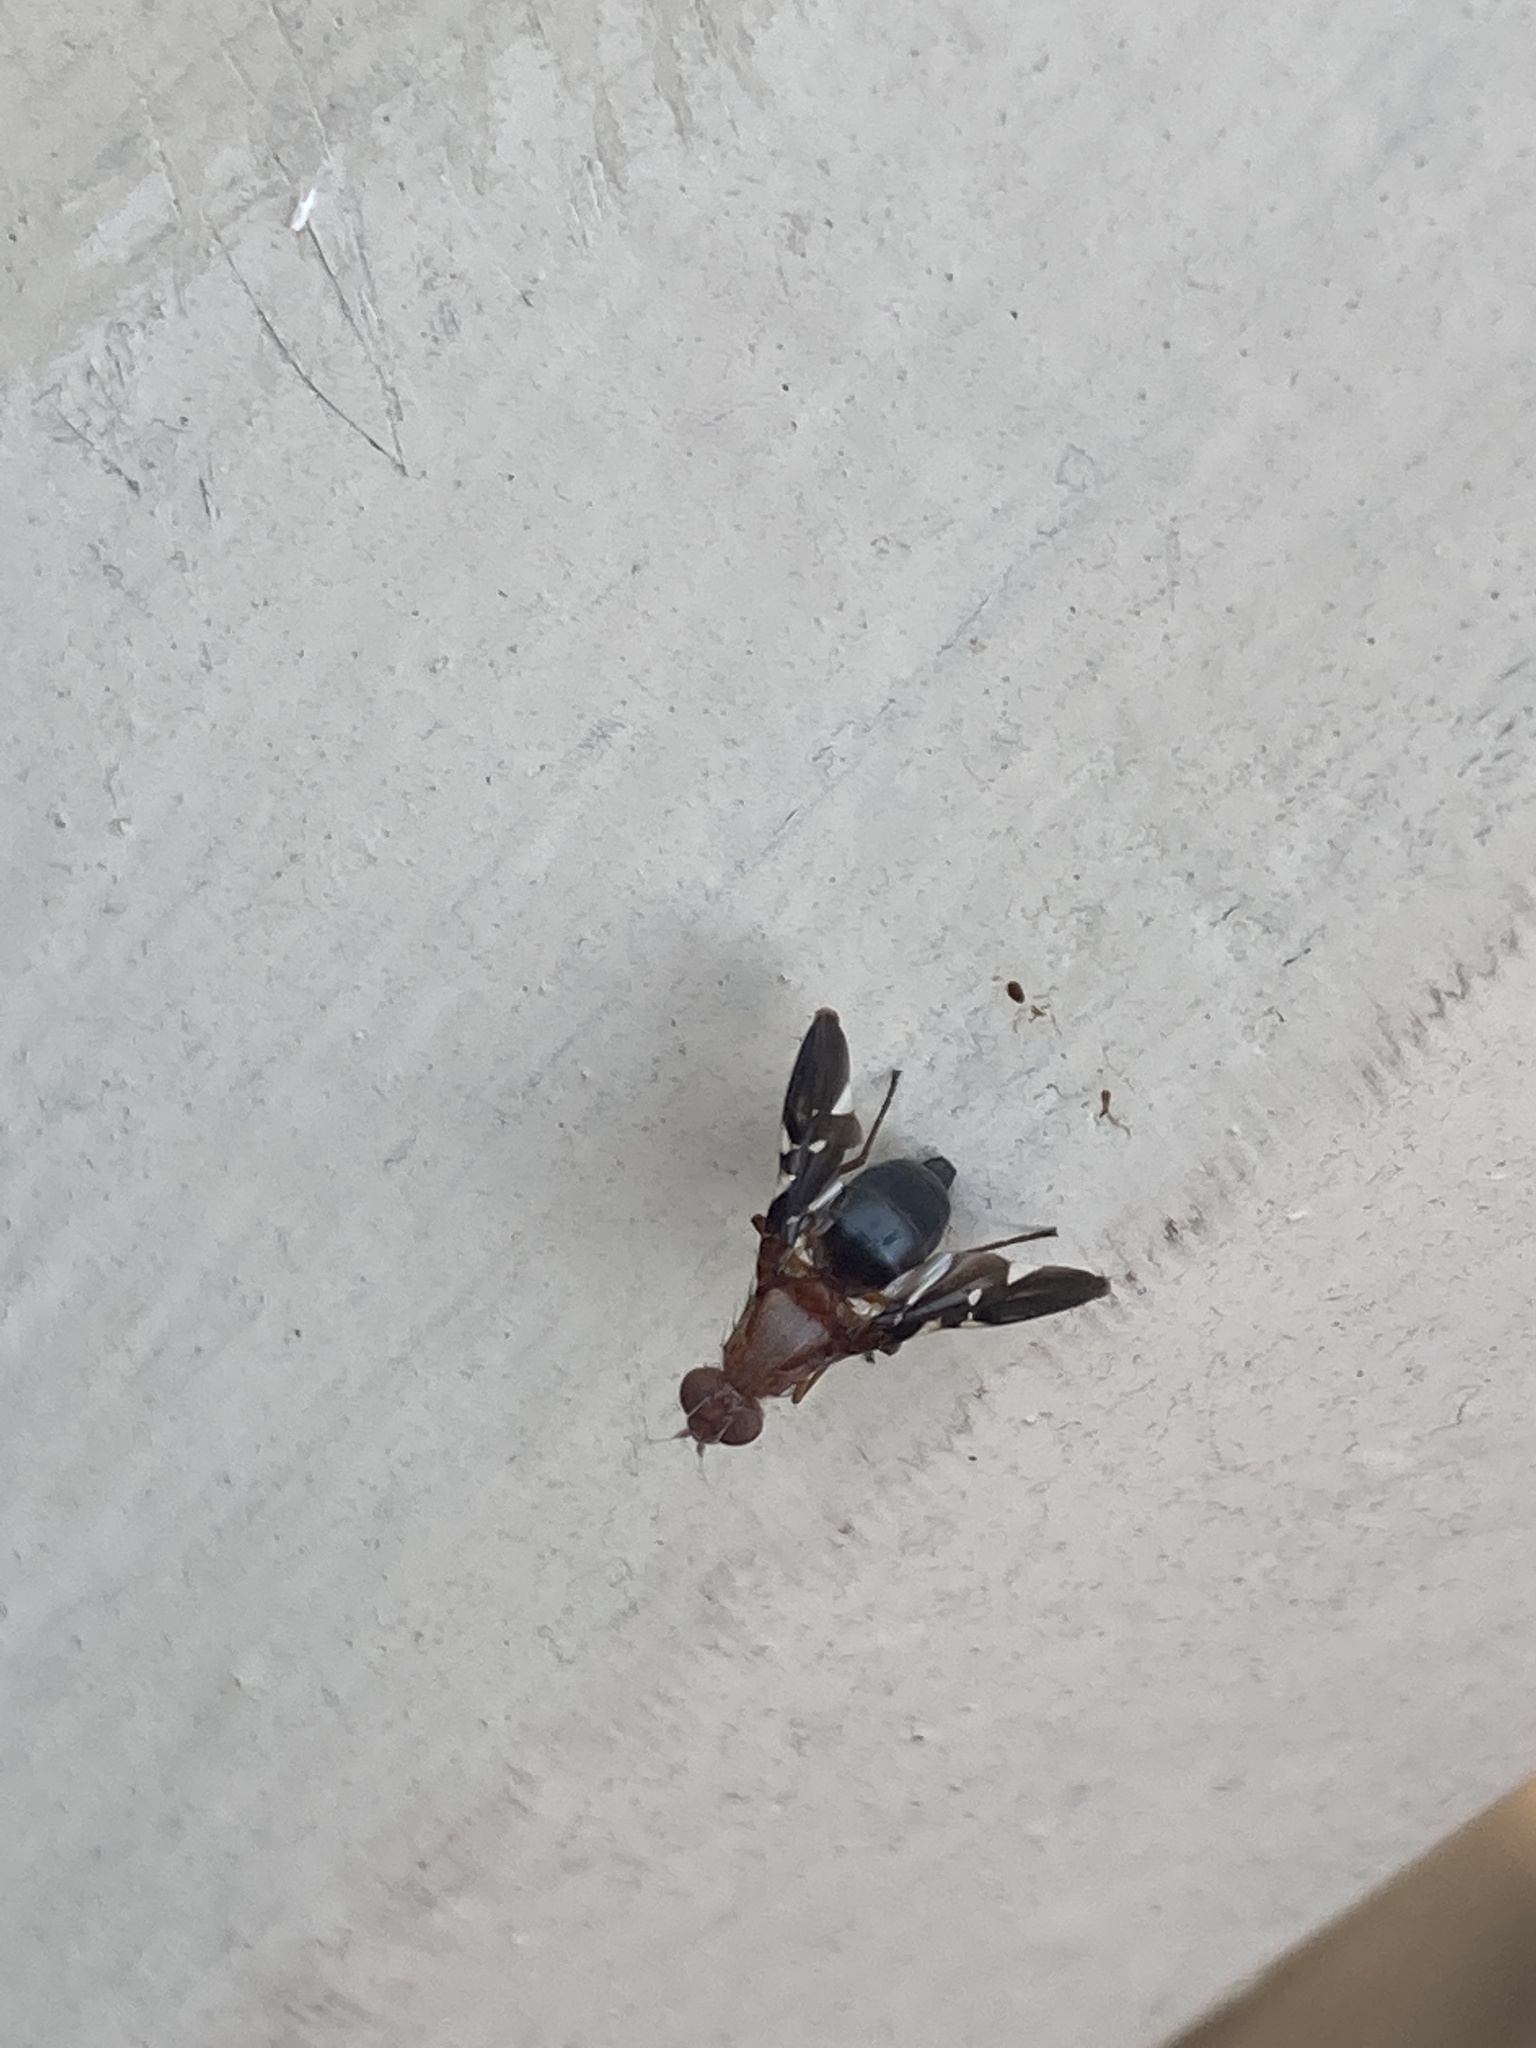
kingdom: Animalia
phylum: Arthropoda
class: Insecta
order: Diptera
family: Ulidiidae
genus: Delphinia
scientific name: Delphinia picta
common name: Common picture-winged fly
